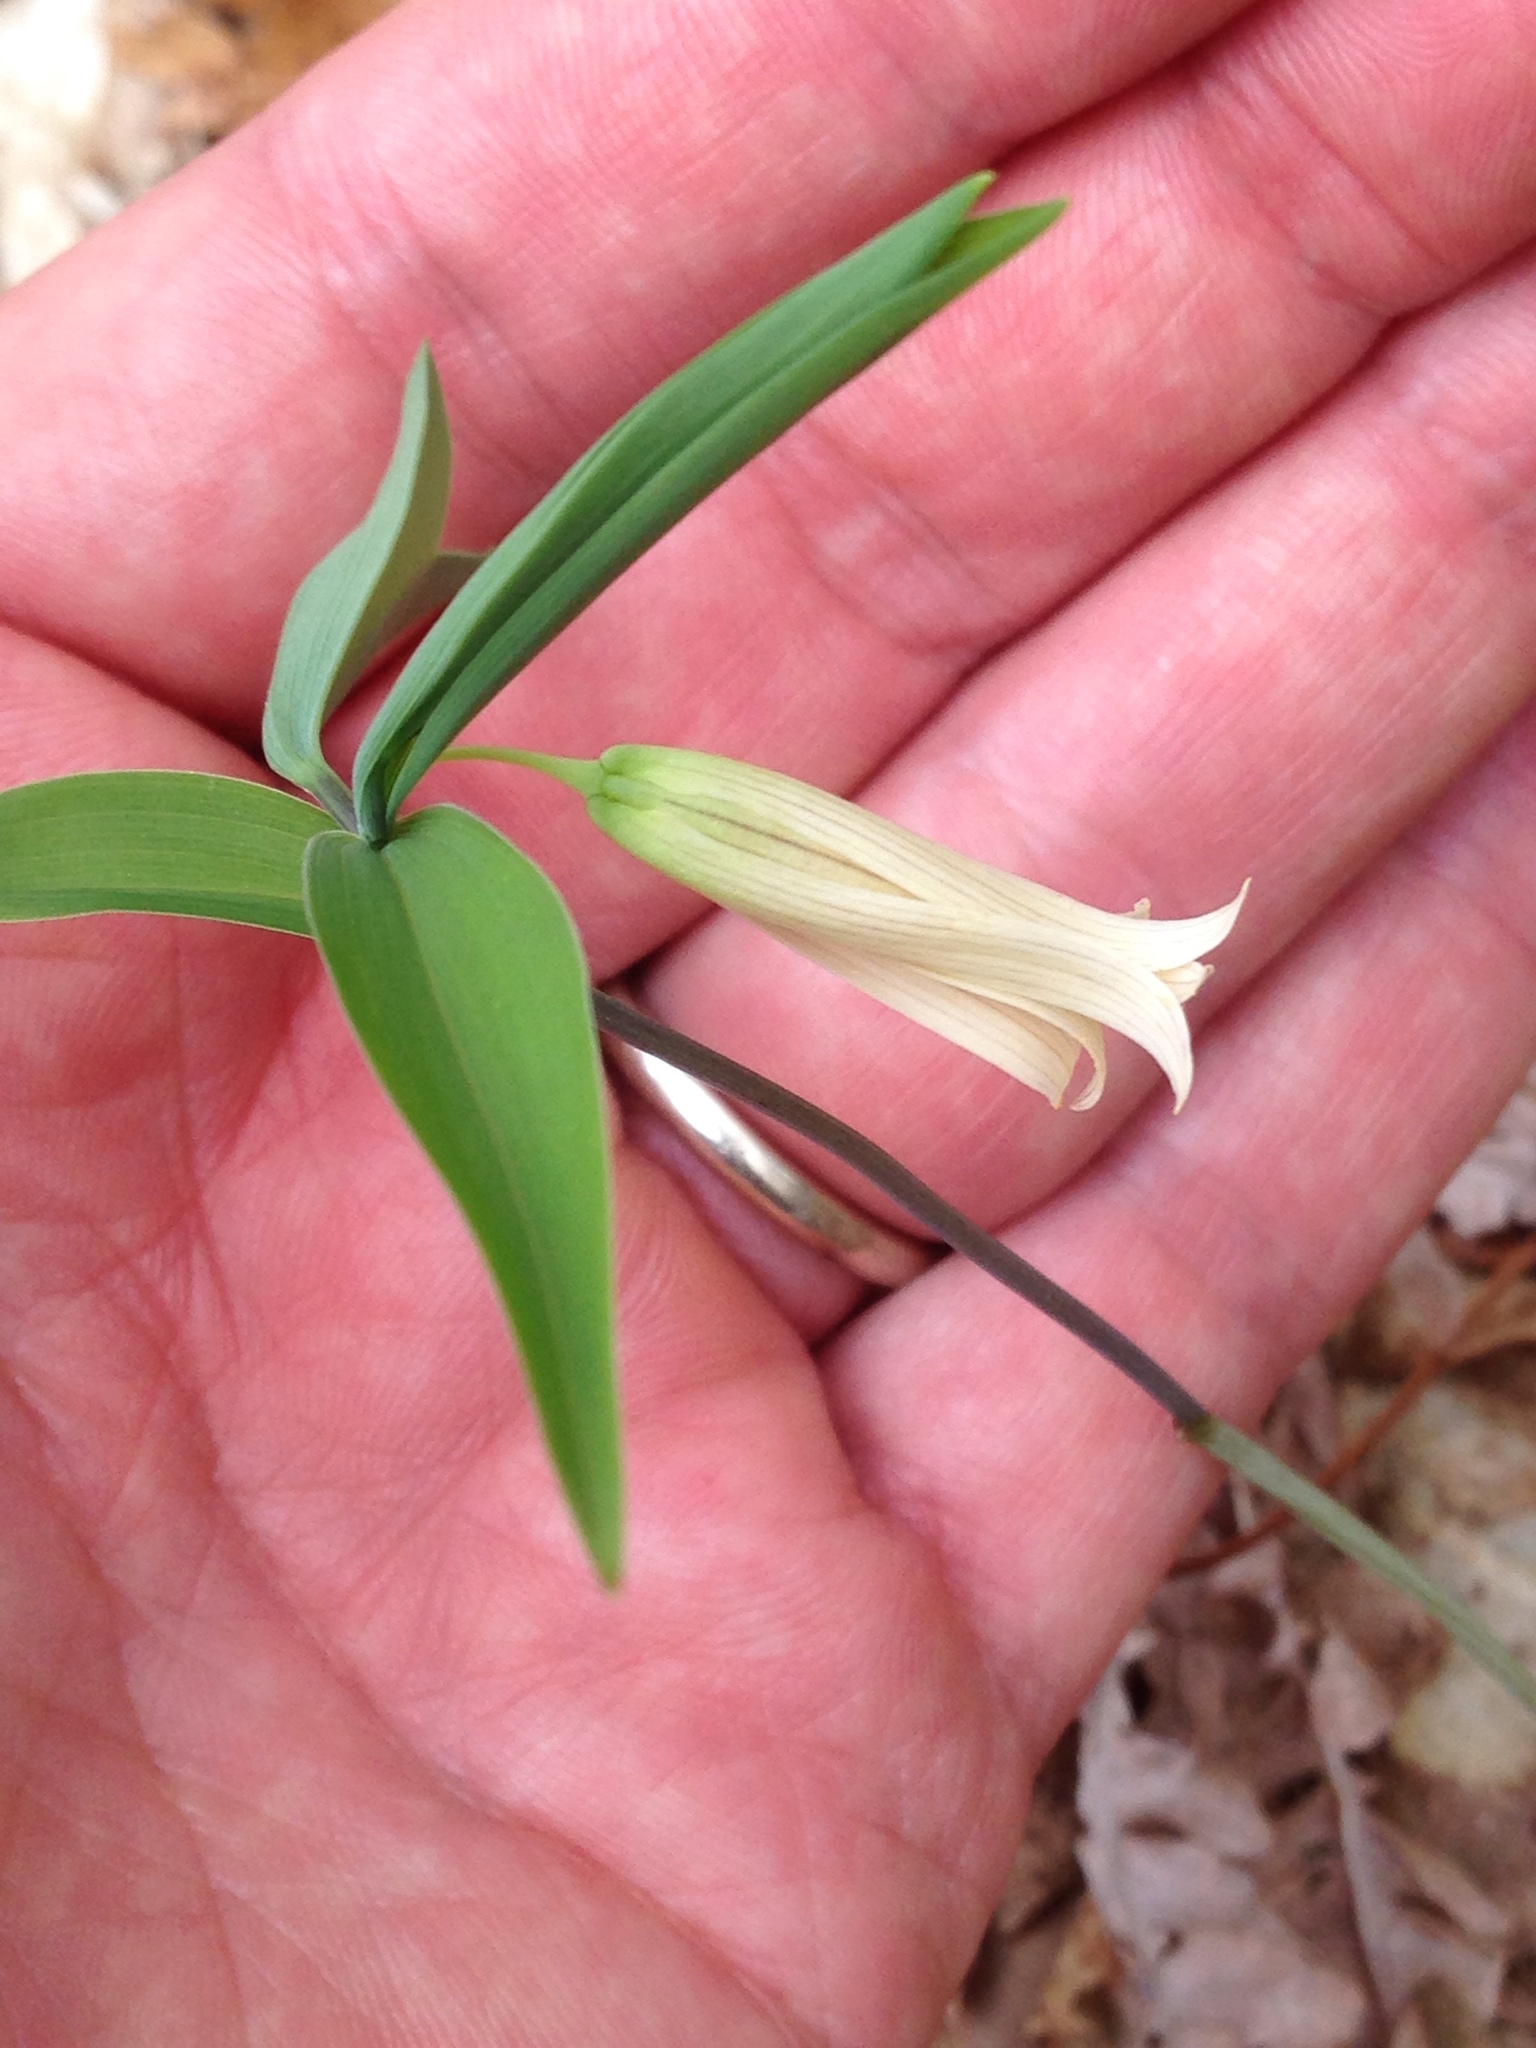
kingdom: Plantae
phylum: Tracheophyta
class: Liliopsida
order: Liliales
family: Colchicaceae
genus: Uvularia
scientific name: Uvularia sessilifolia
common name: Straw-lily
